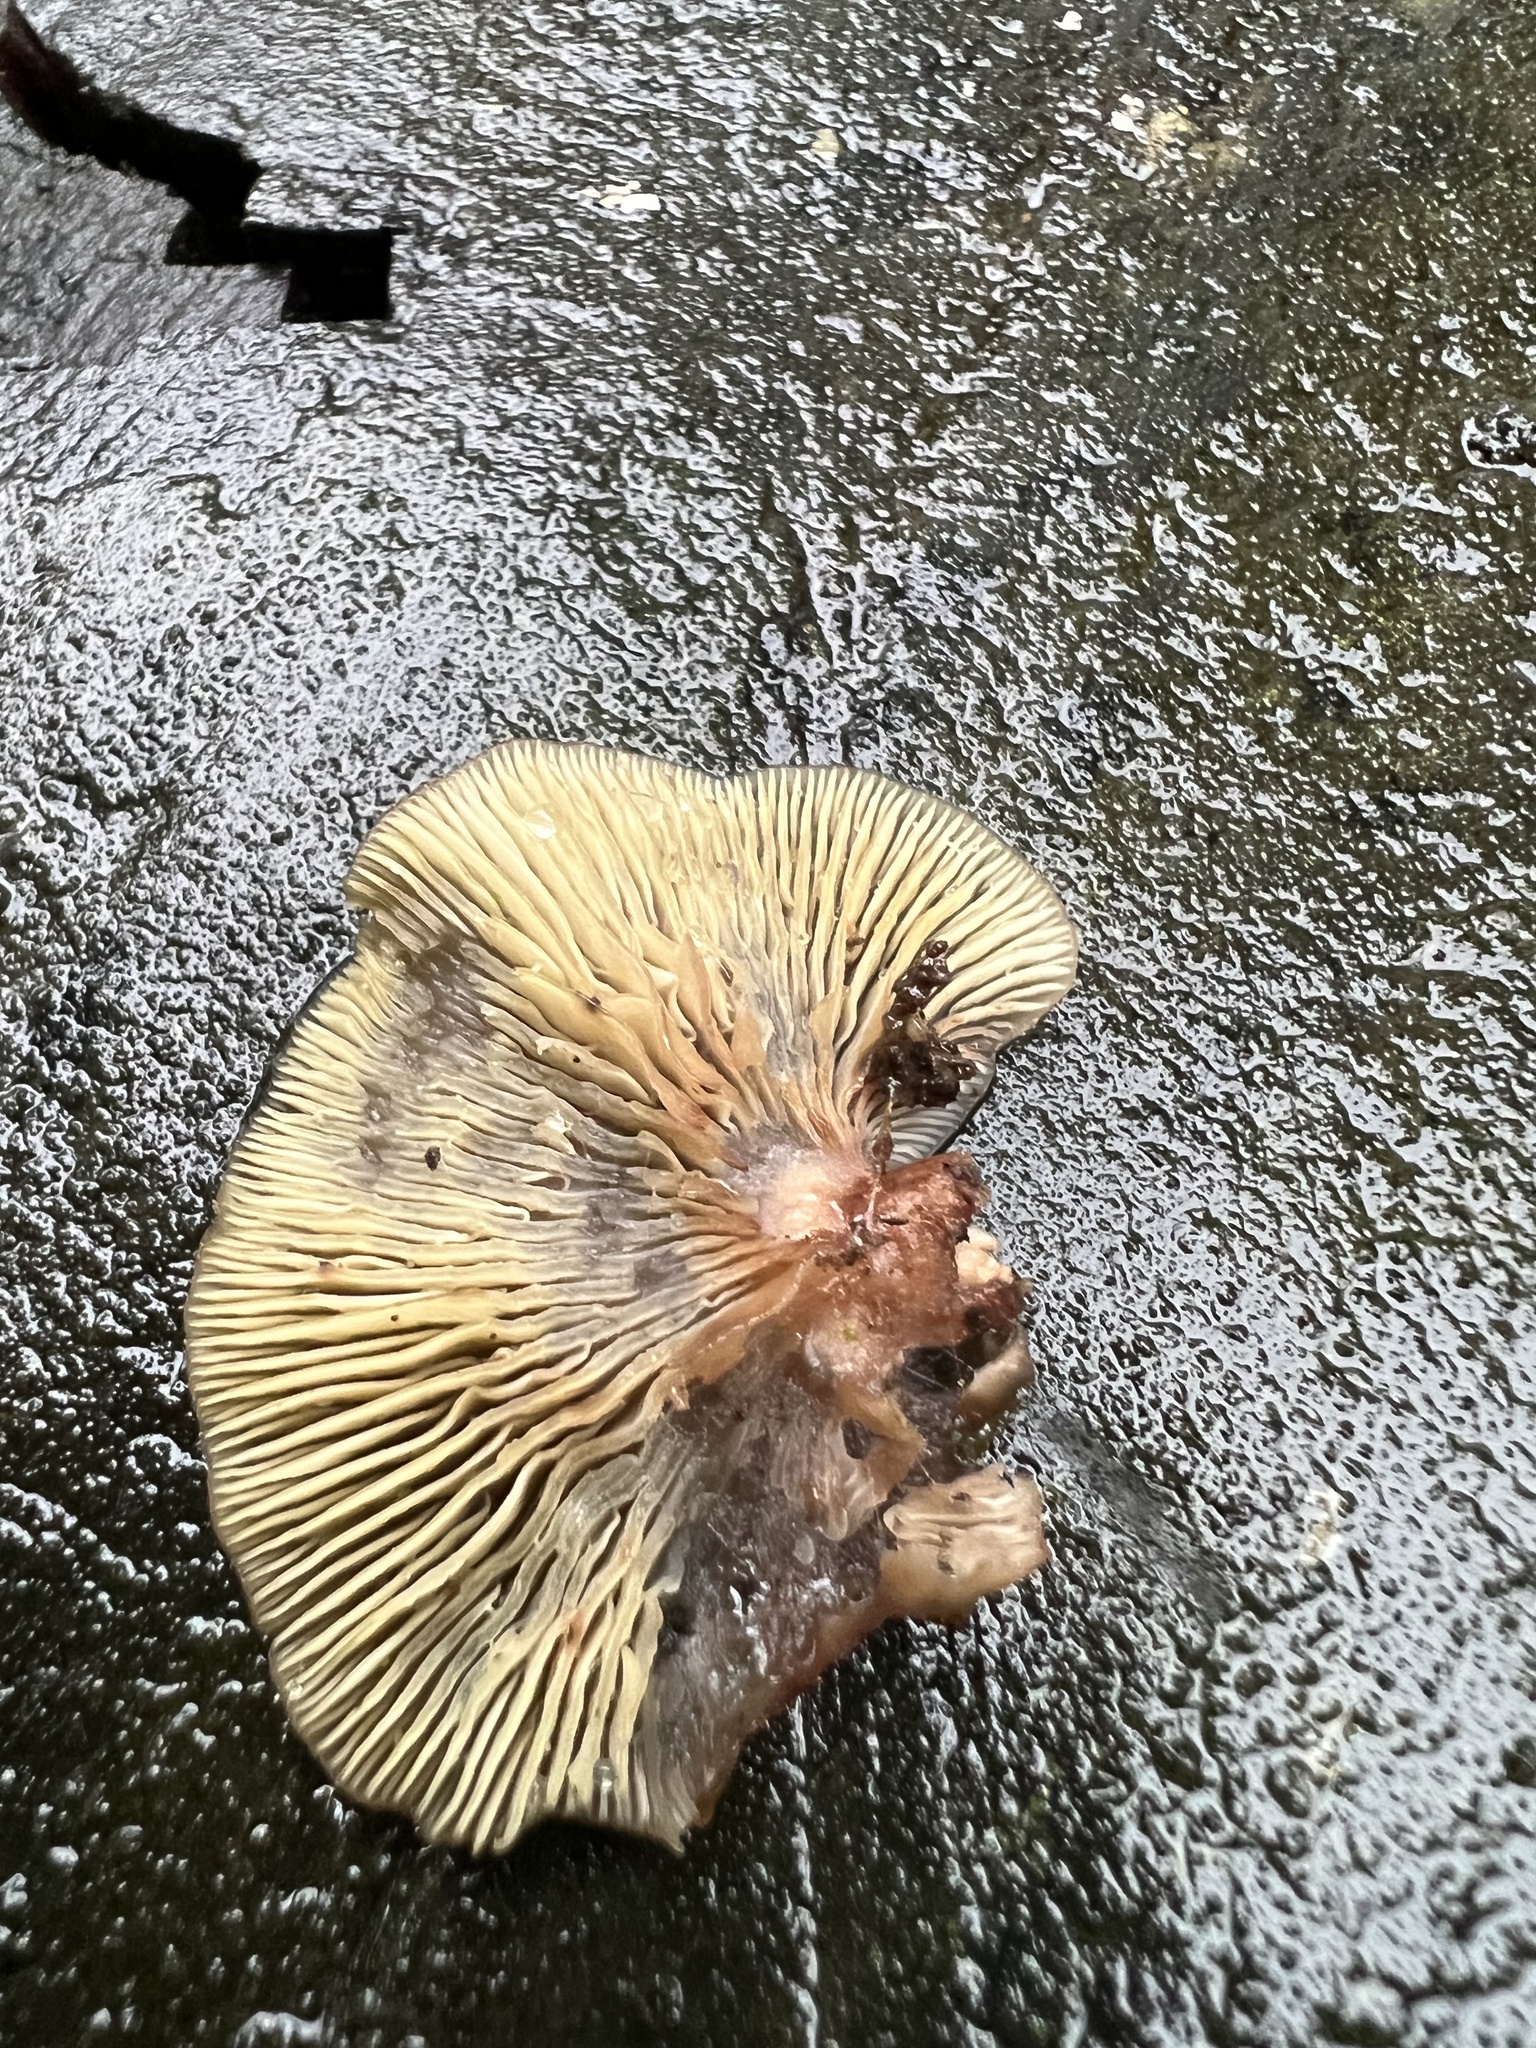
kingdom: Fungi
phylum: Basidiomycota
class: Agaricomycetes
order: Agaricales
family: Mycenaceae
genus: Panellus
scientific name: Panellus longinquus
